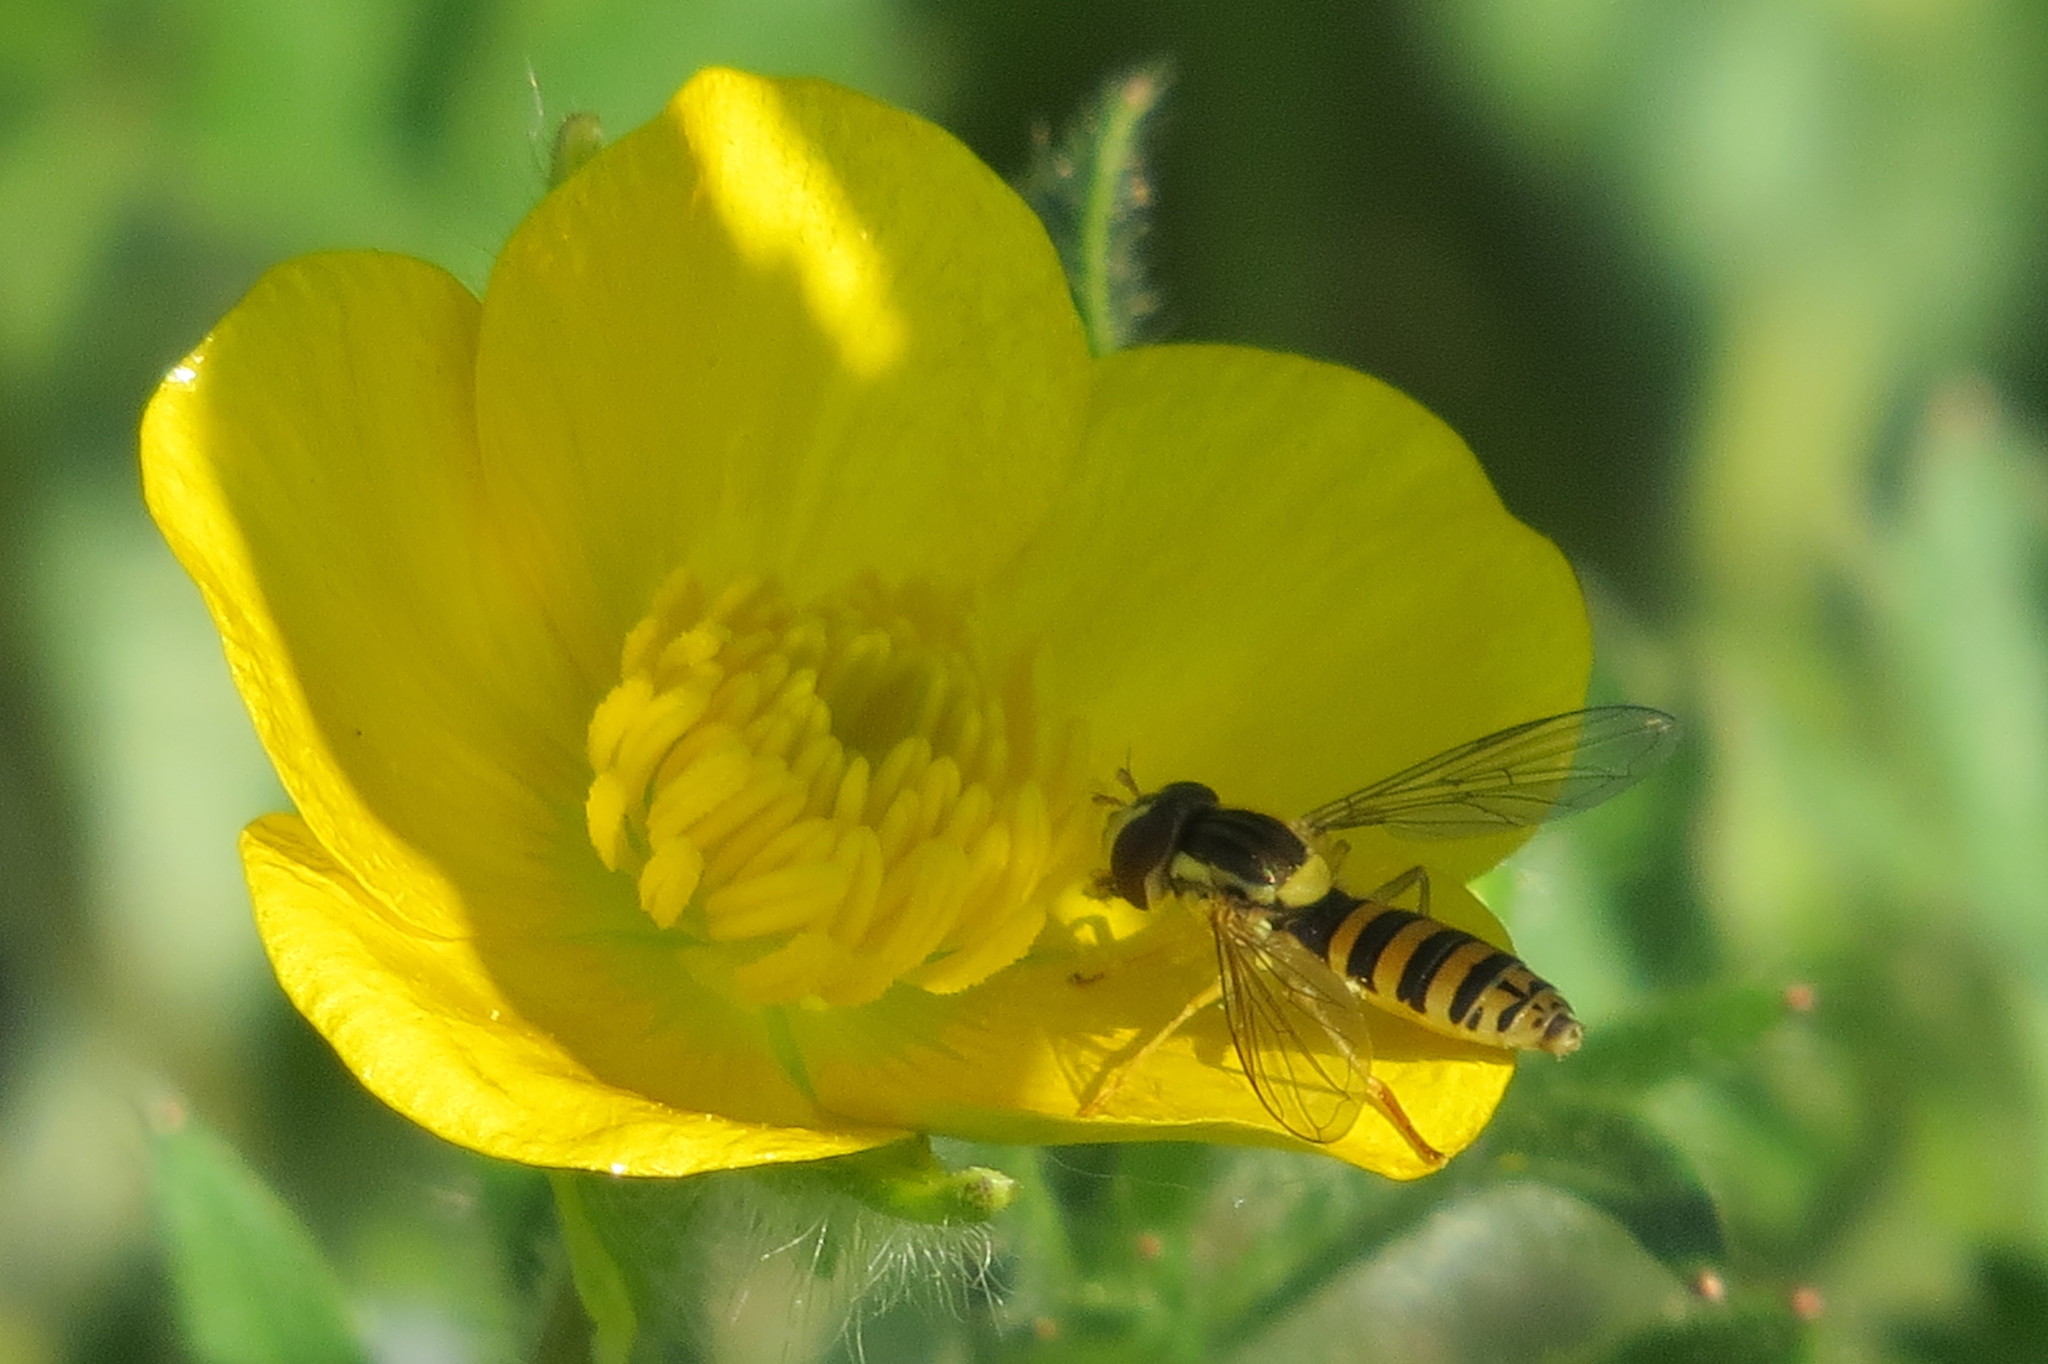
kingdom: Animalia
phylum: Arthropoda
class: Insecta
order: Diptera
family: Syrphidae
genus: Sphaerophoria
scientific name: Sphaerophoria
